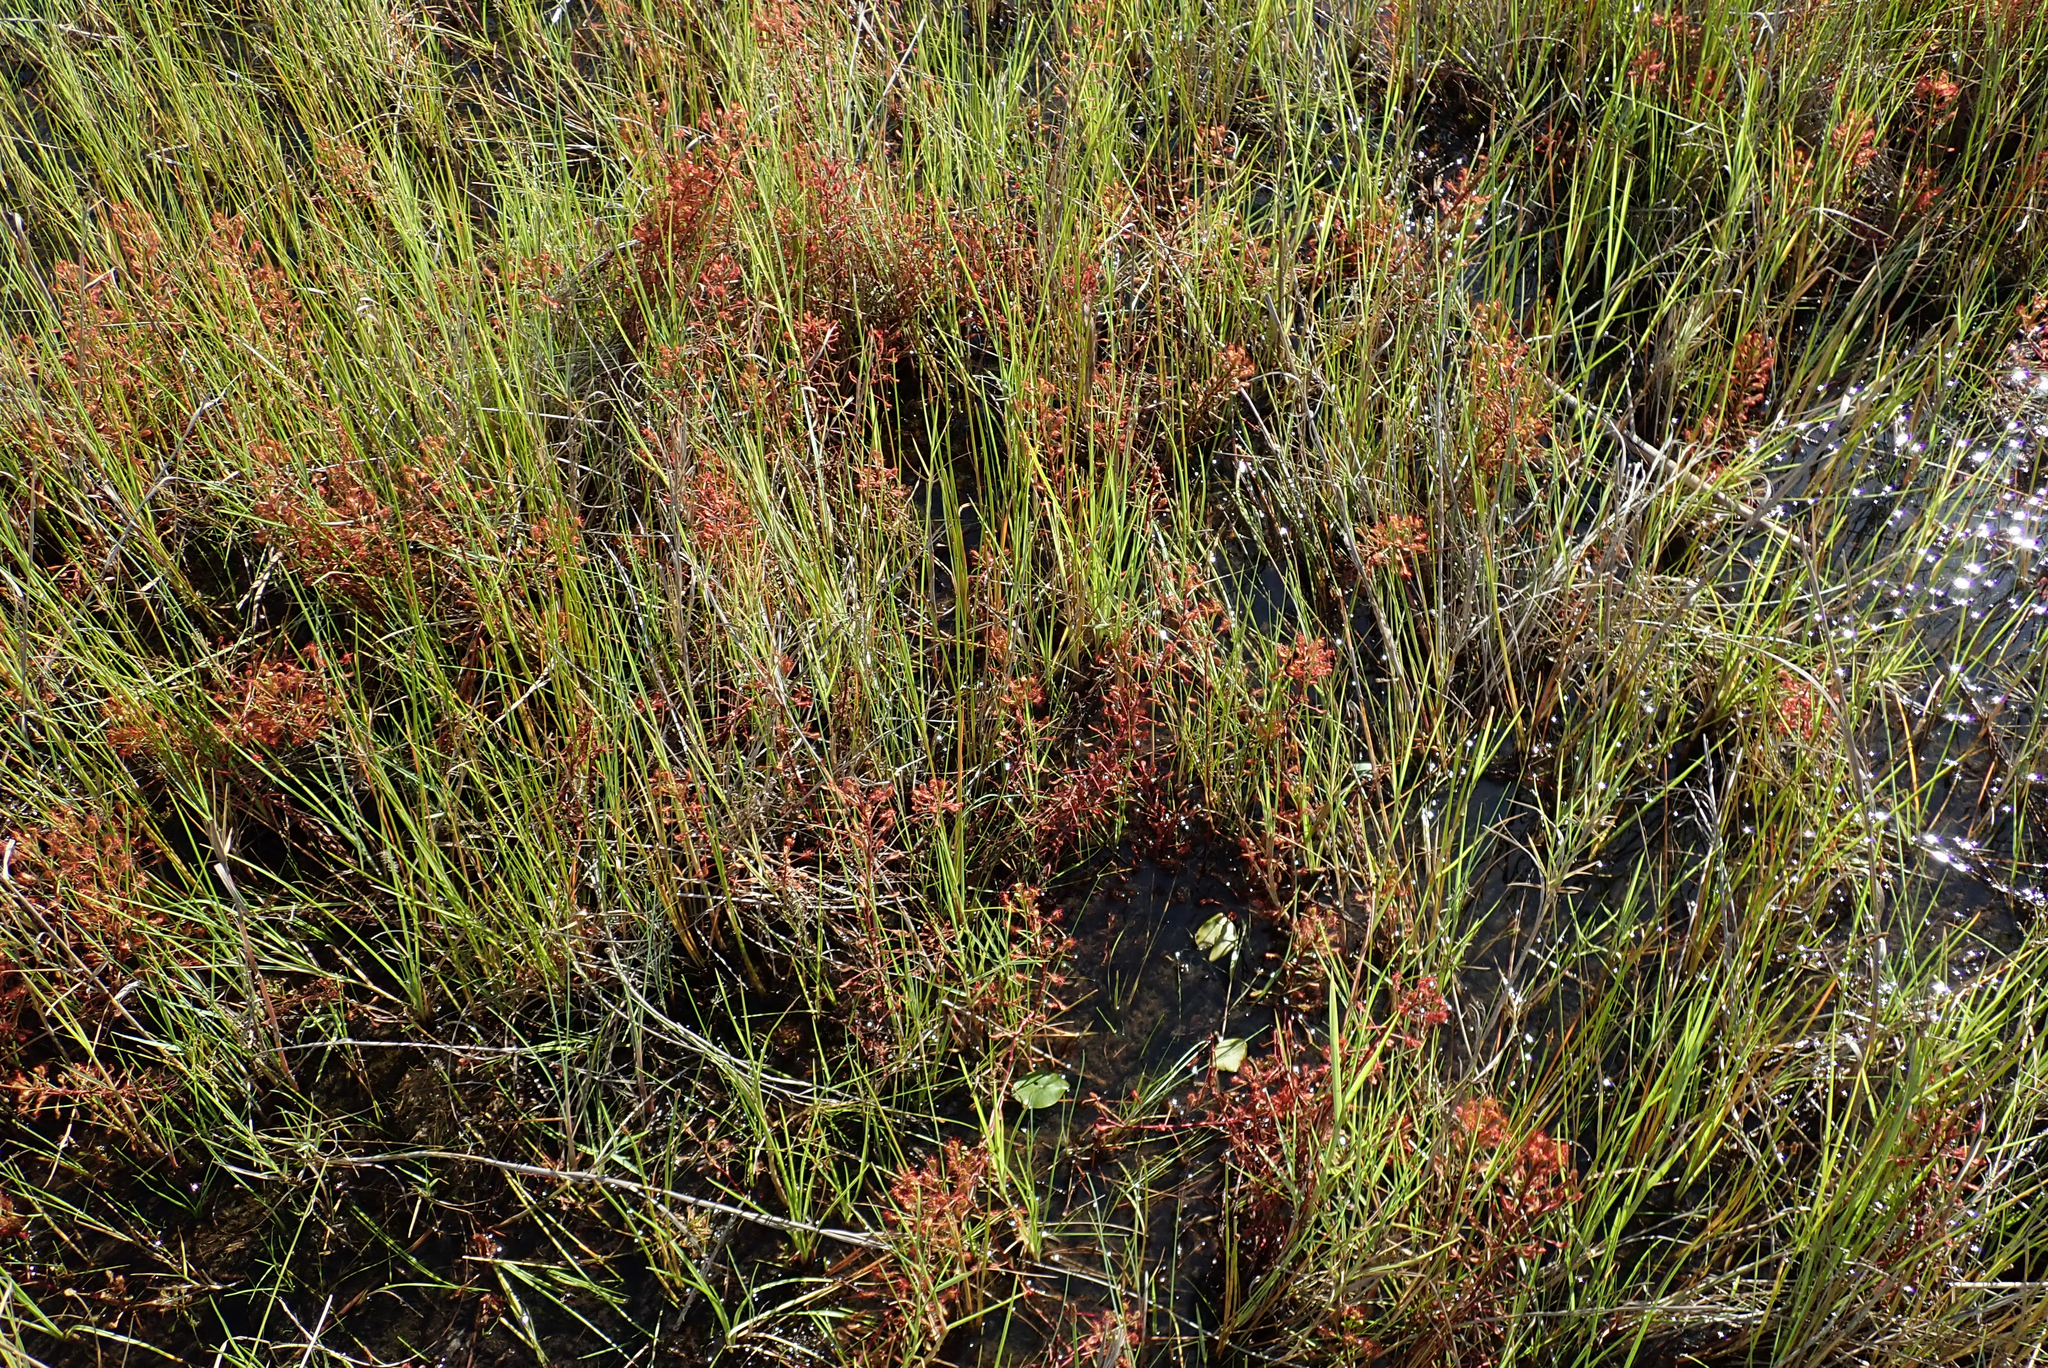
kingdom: Plantae
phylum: Tracheophyta
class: Magnoliopsida
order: Caryophyllales
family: Droseraceae
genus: Drosera
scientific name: Drosera madagascariensis
